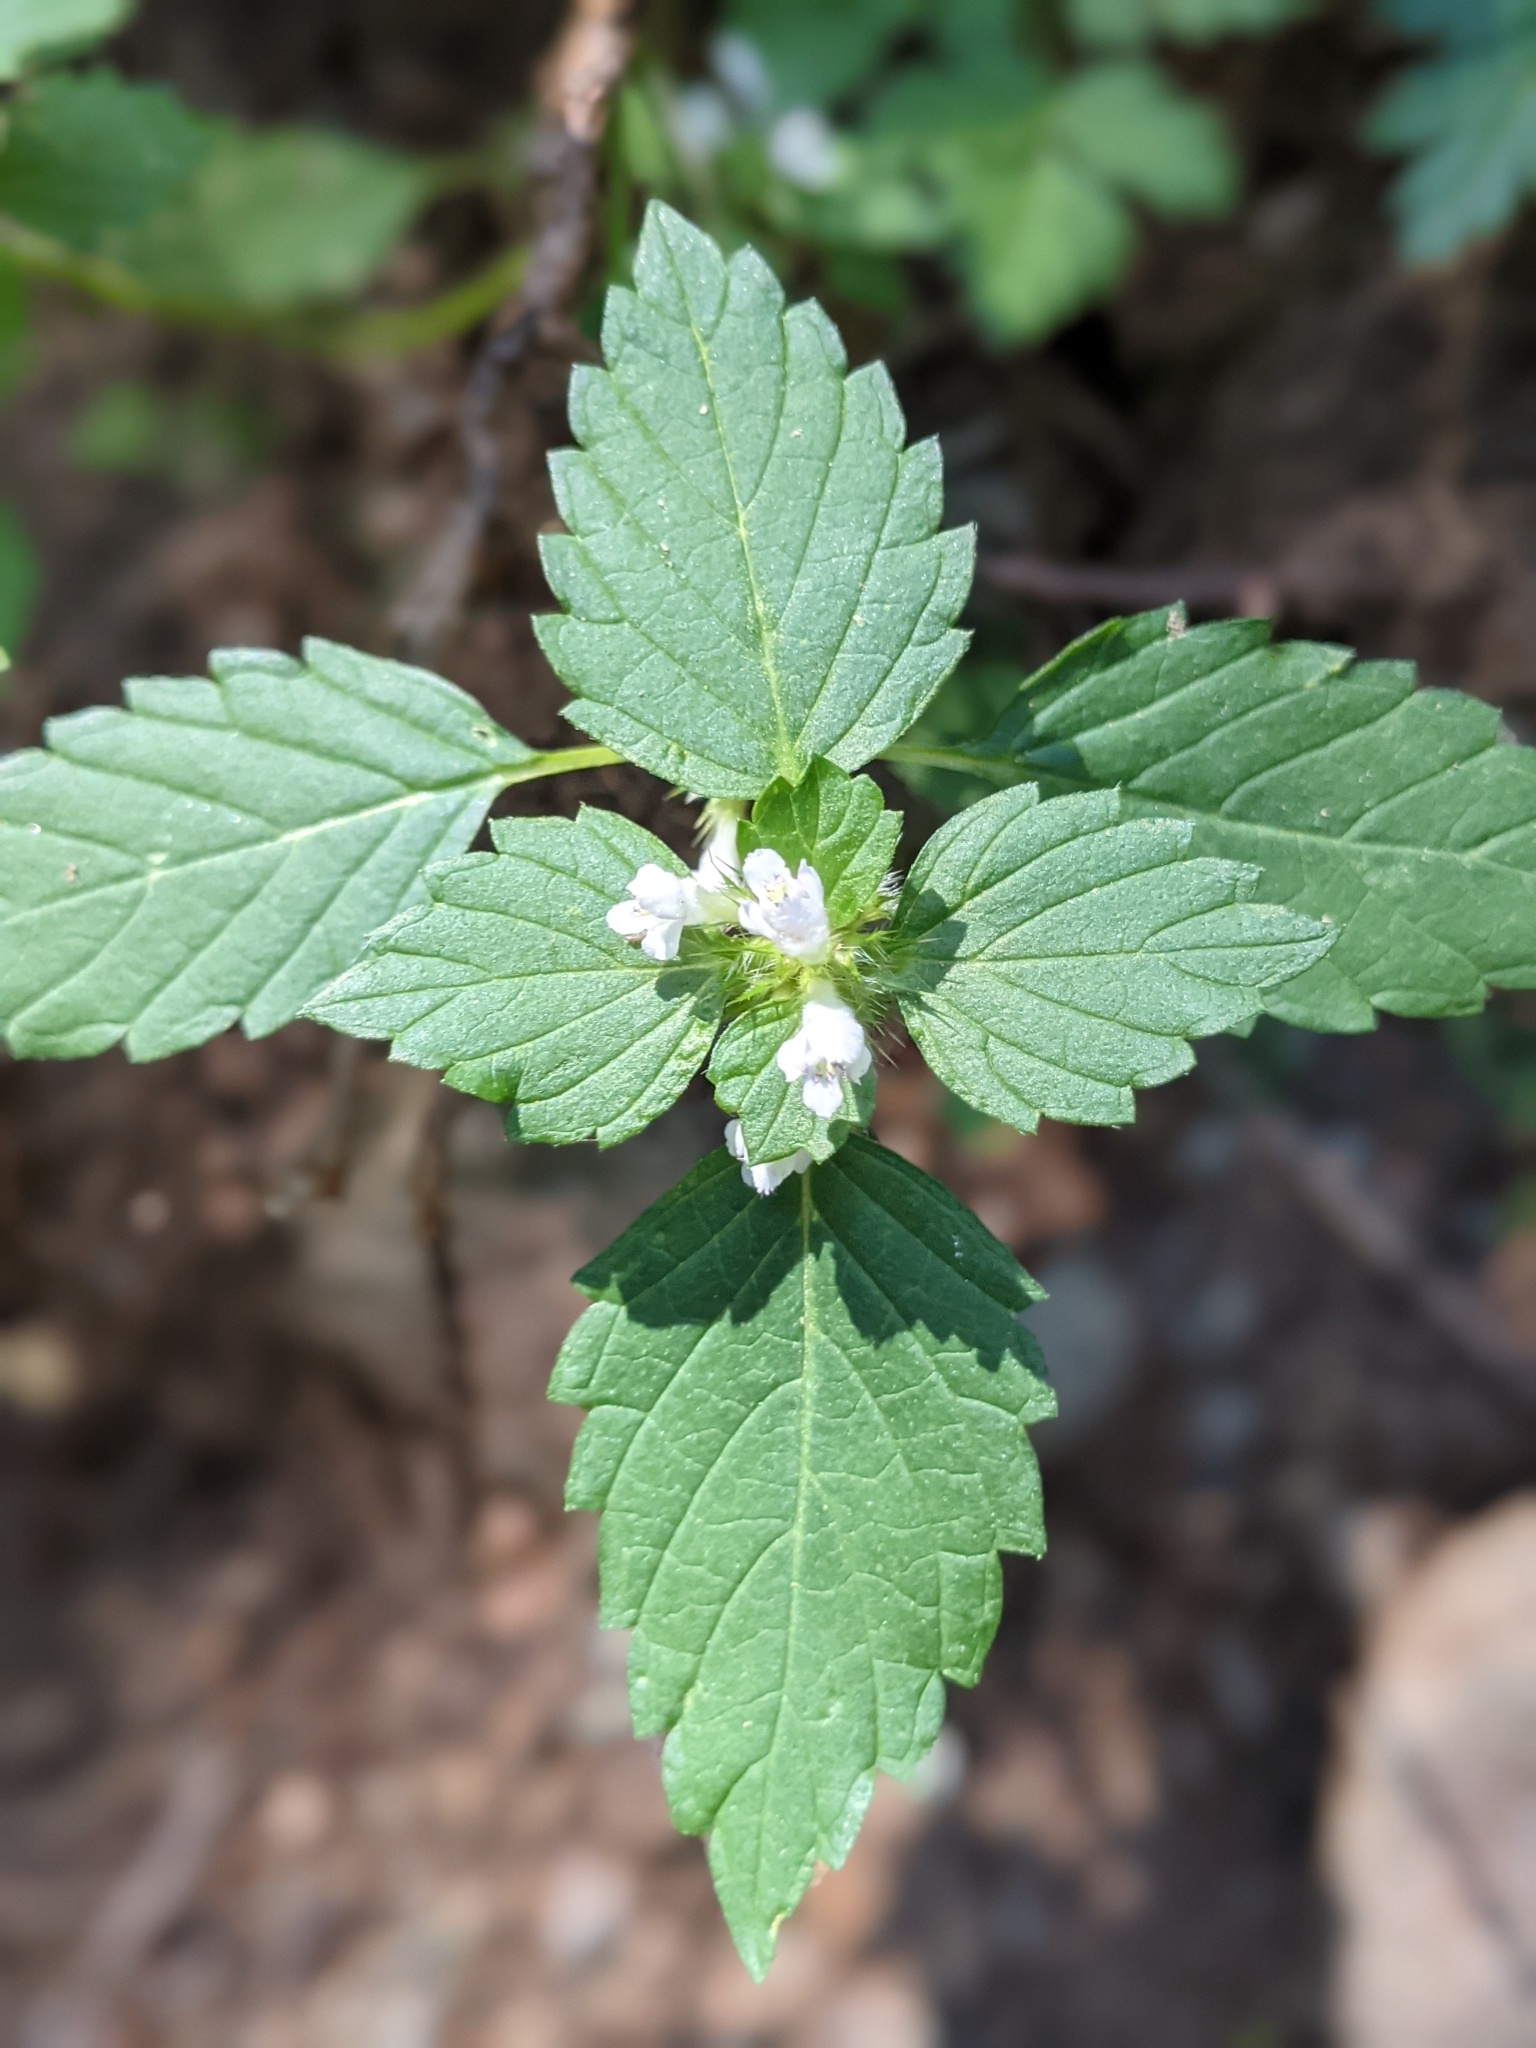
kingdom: Plantae
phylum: Tracheophyta
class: Magnoliopsida
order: Lamiales
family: Lamiaceae
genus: Galeopsis
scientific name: Galeopsis tetrahit
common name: Common hemp-nettle
